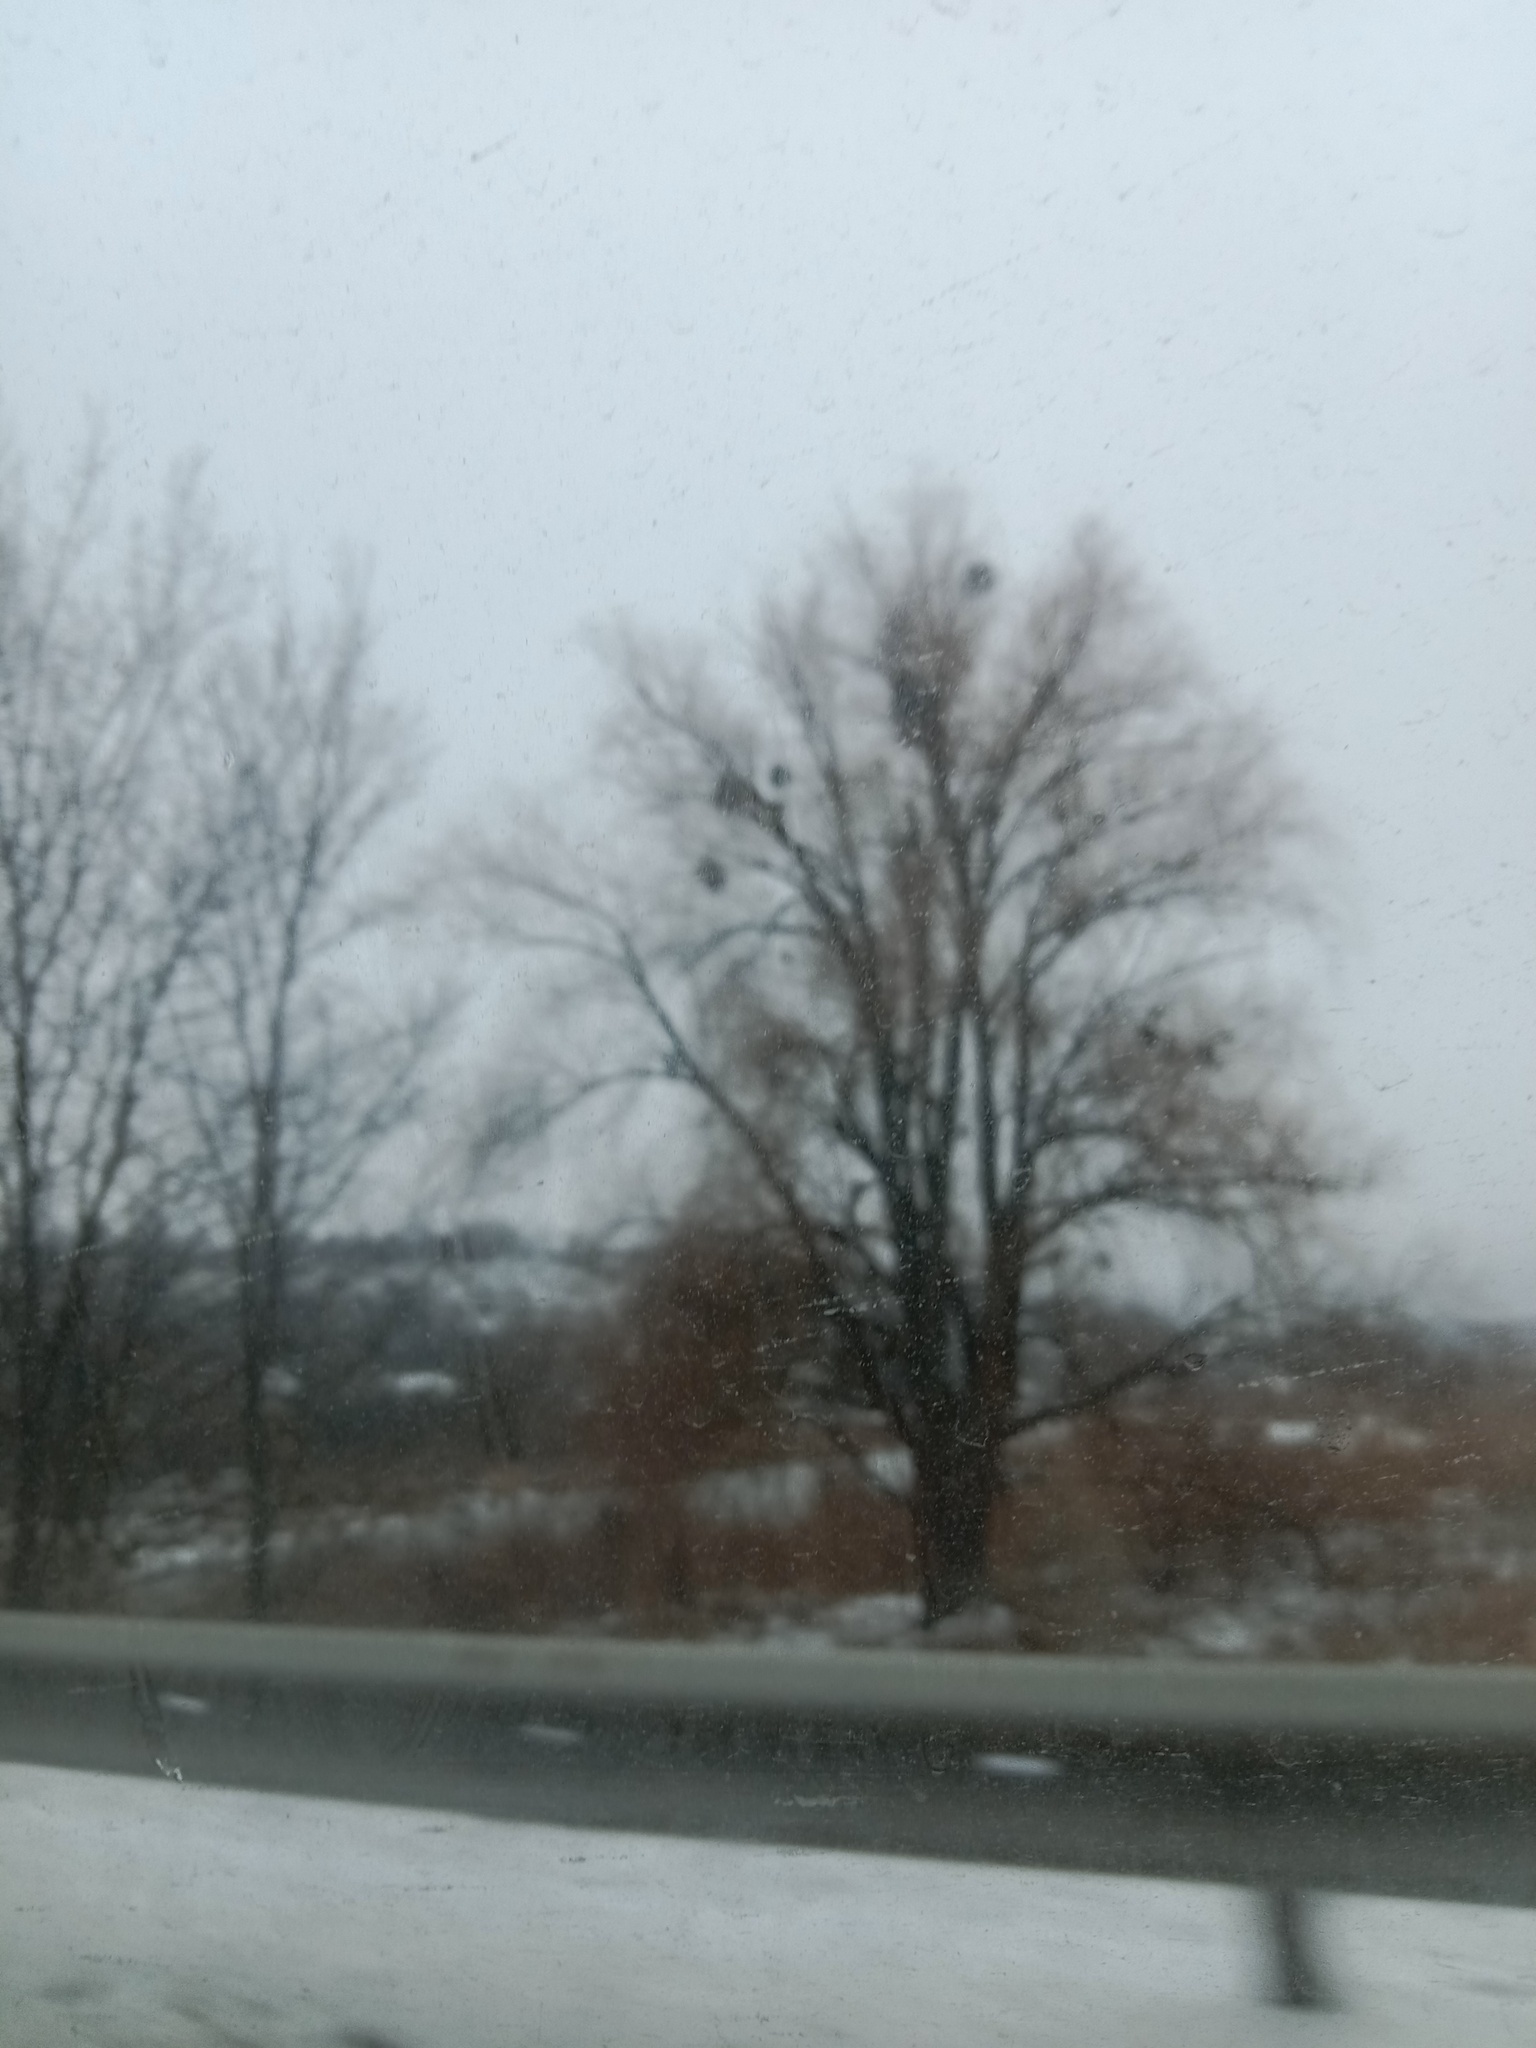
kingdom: Plantae
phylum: Tracheophyta
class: Magnoliopsida
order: Santalales
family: Viscaceae
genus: Viscum
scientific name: Viscum album
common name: Mistletoe
